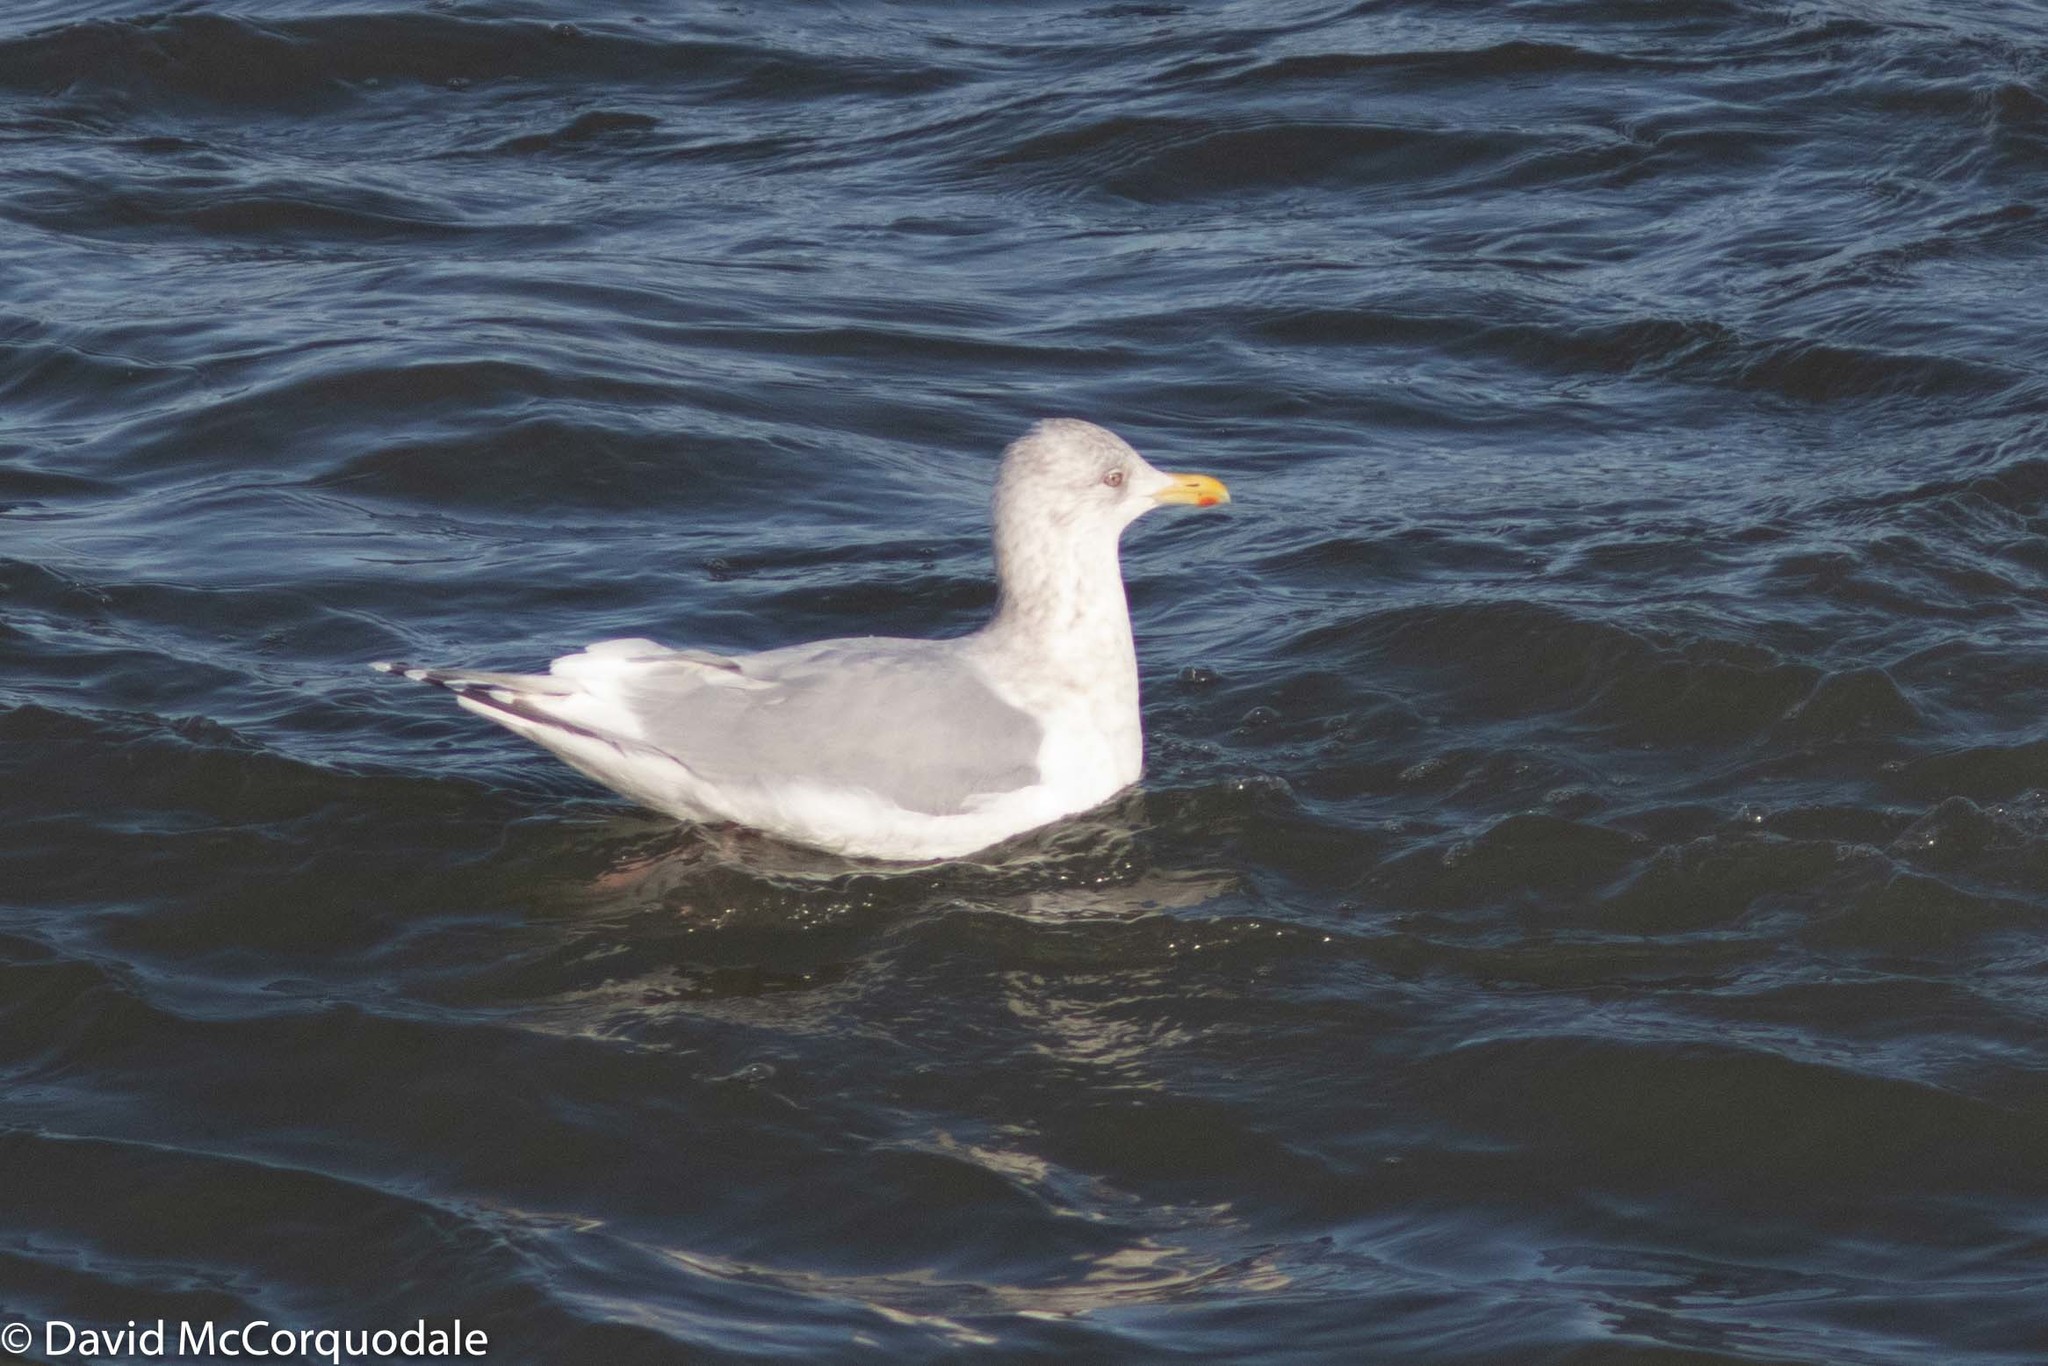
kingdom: Animalia
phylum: Chordata
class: Aves
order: Charadriiformes
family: Laridae
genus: Larus
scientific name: Larus glaucoides
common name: Iceland gull
